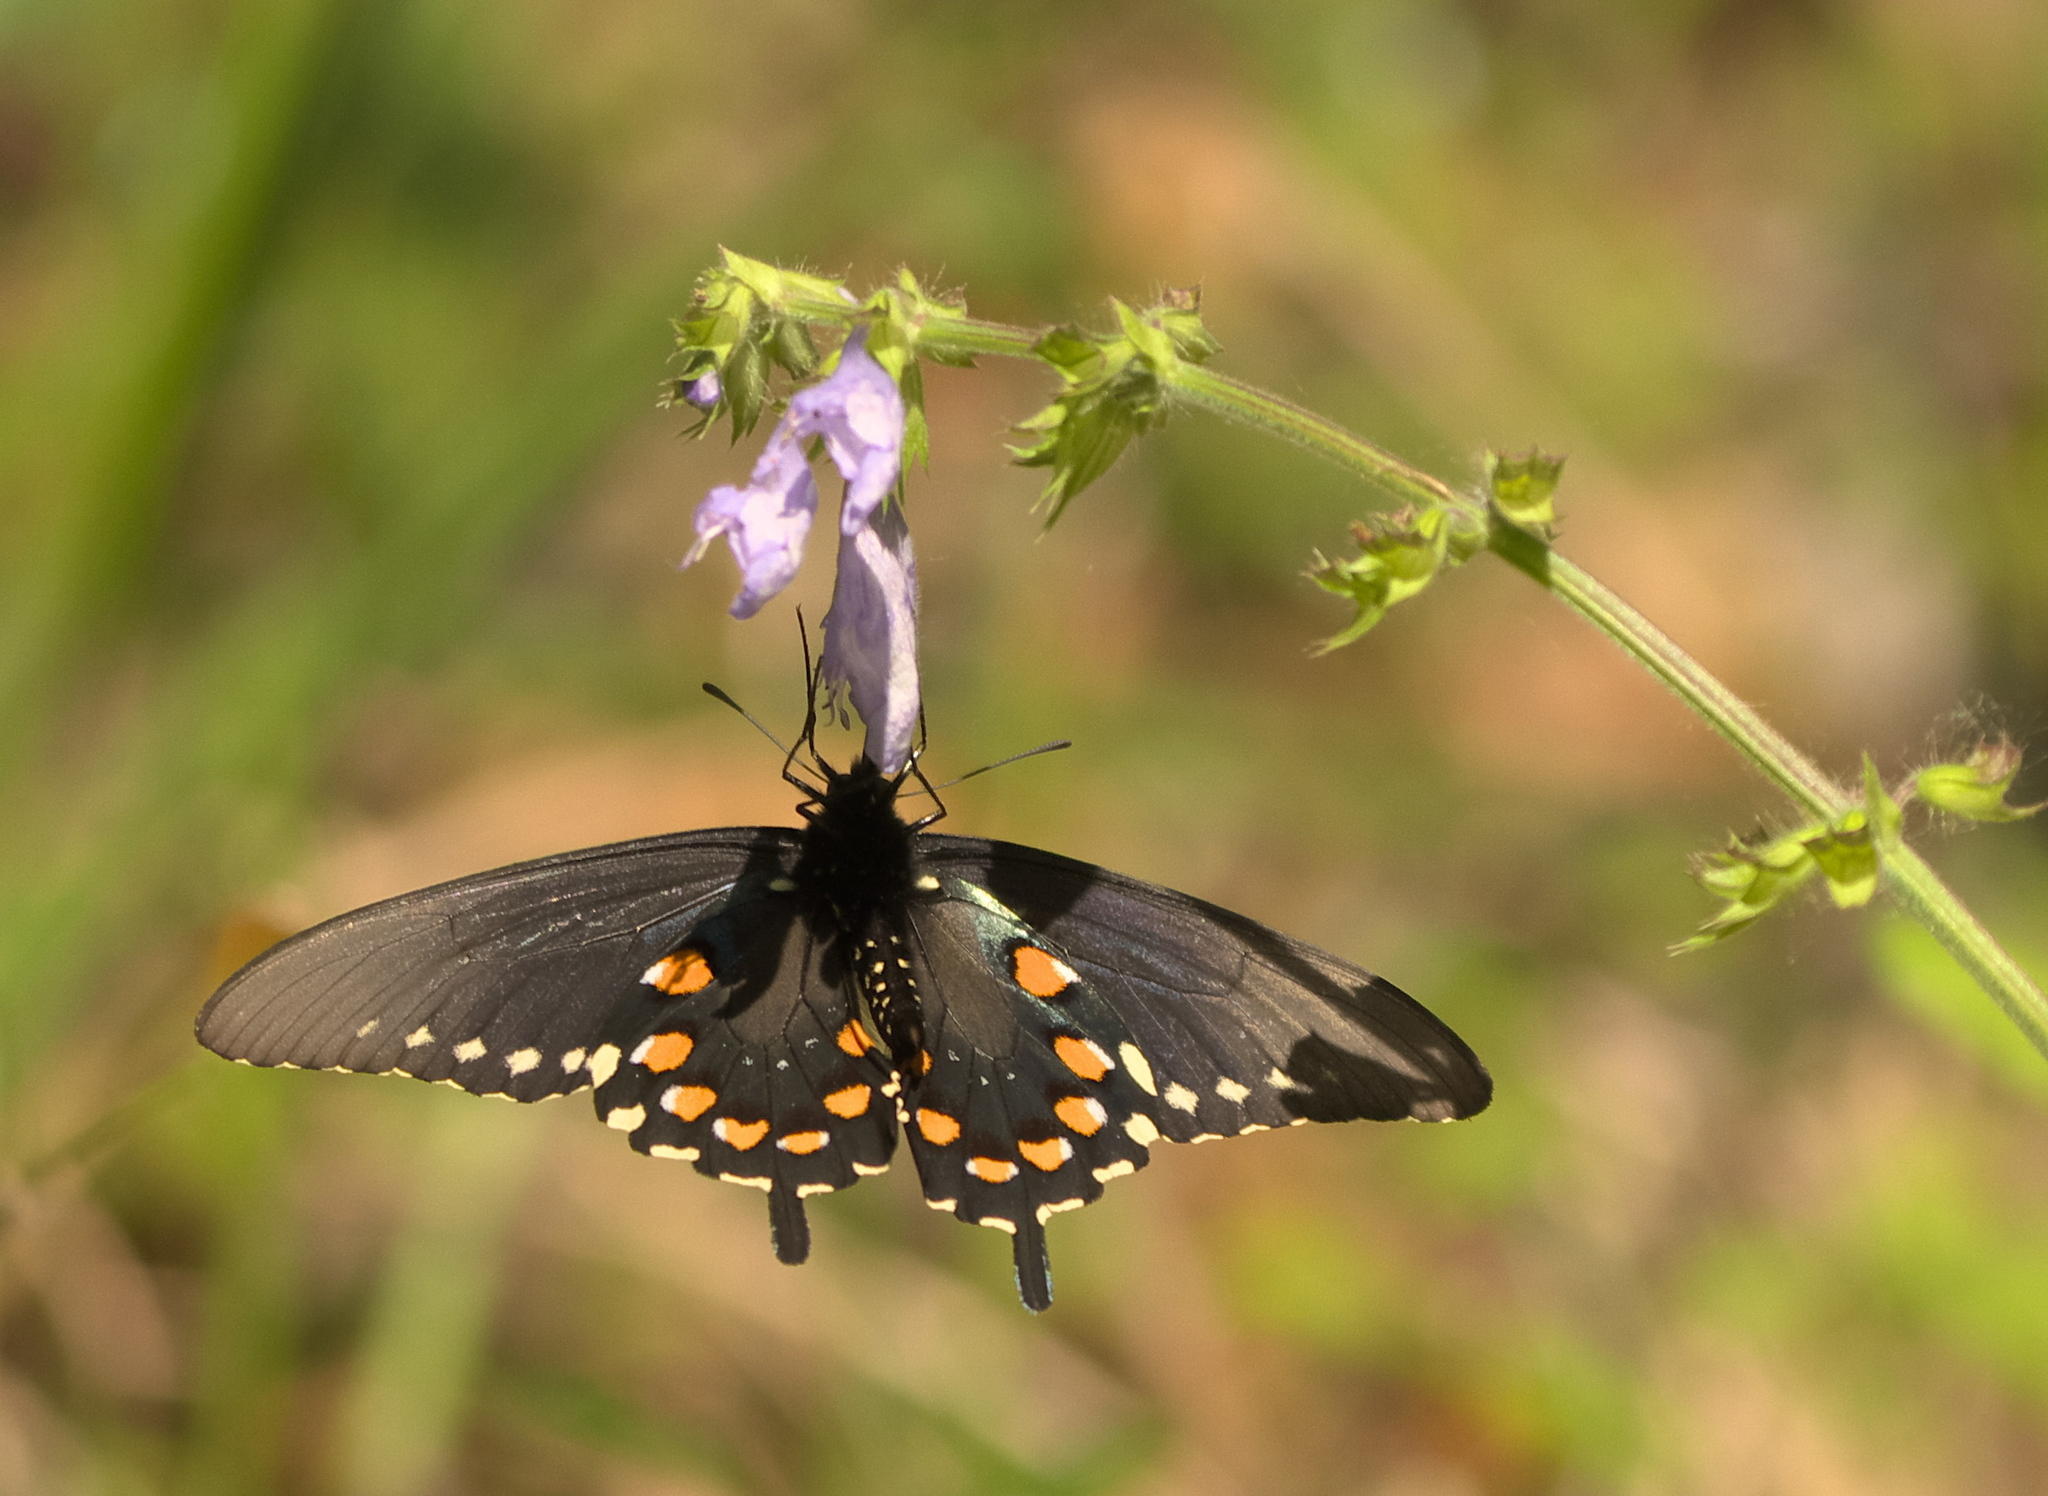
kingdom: Animalia
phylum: Arthropoda
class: Insecta
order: Lepidoptera
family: Papilionidae
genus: Battus
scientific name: Battus philenor
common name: Pipevine swallowtail
